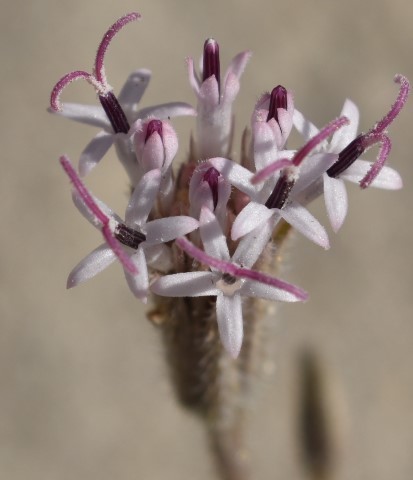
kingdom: Plantae
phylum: Tracheophyta
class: Magnoliopsida
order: Asterales
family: Asteraceae
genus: Palafoxia
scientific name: Palafoxia arida
